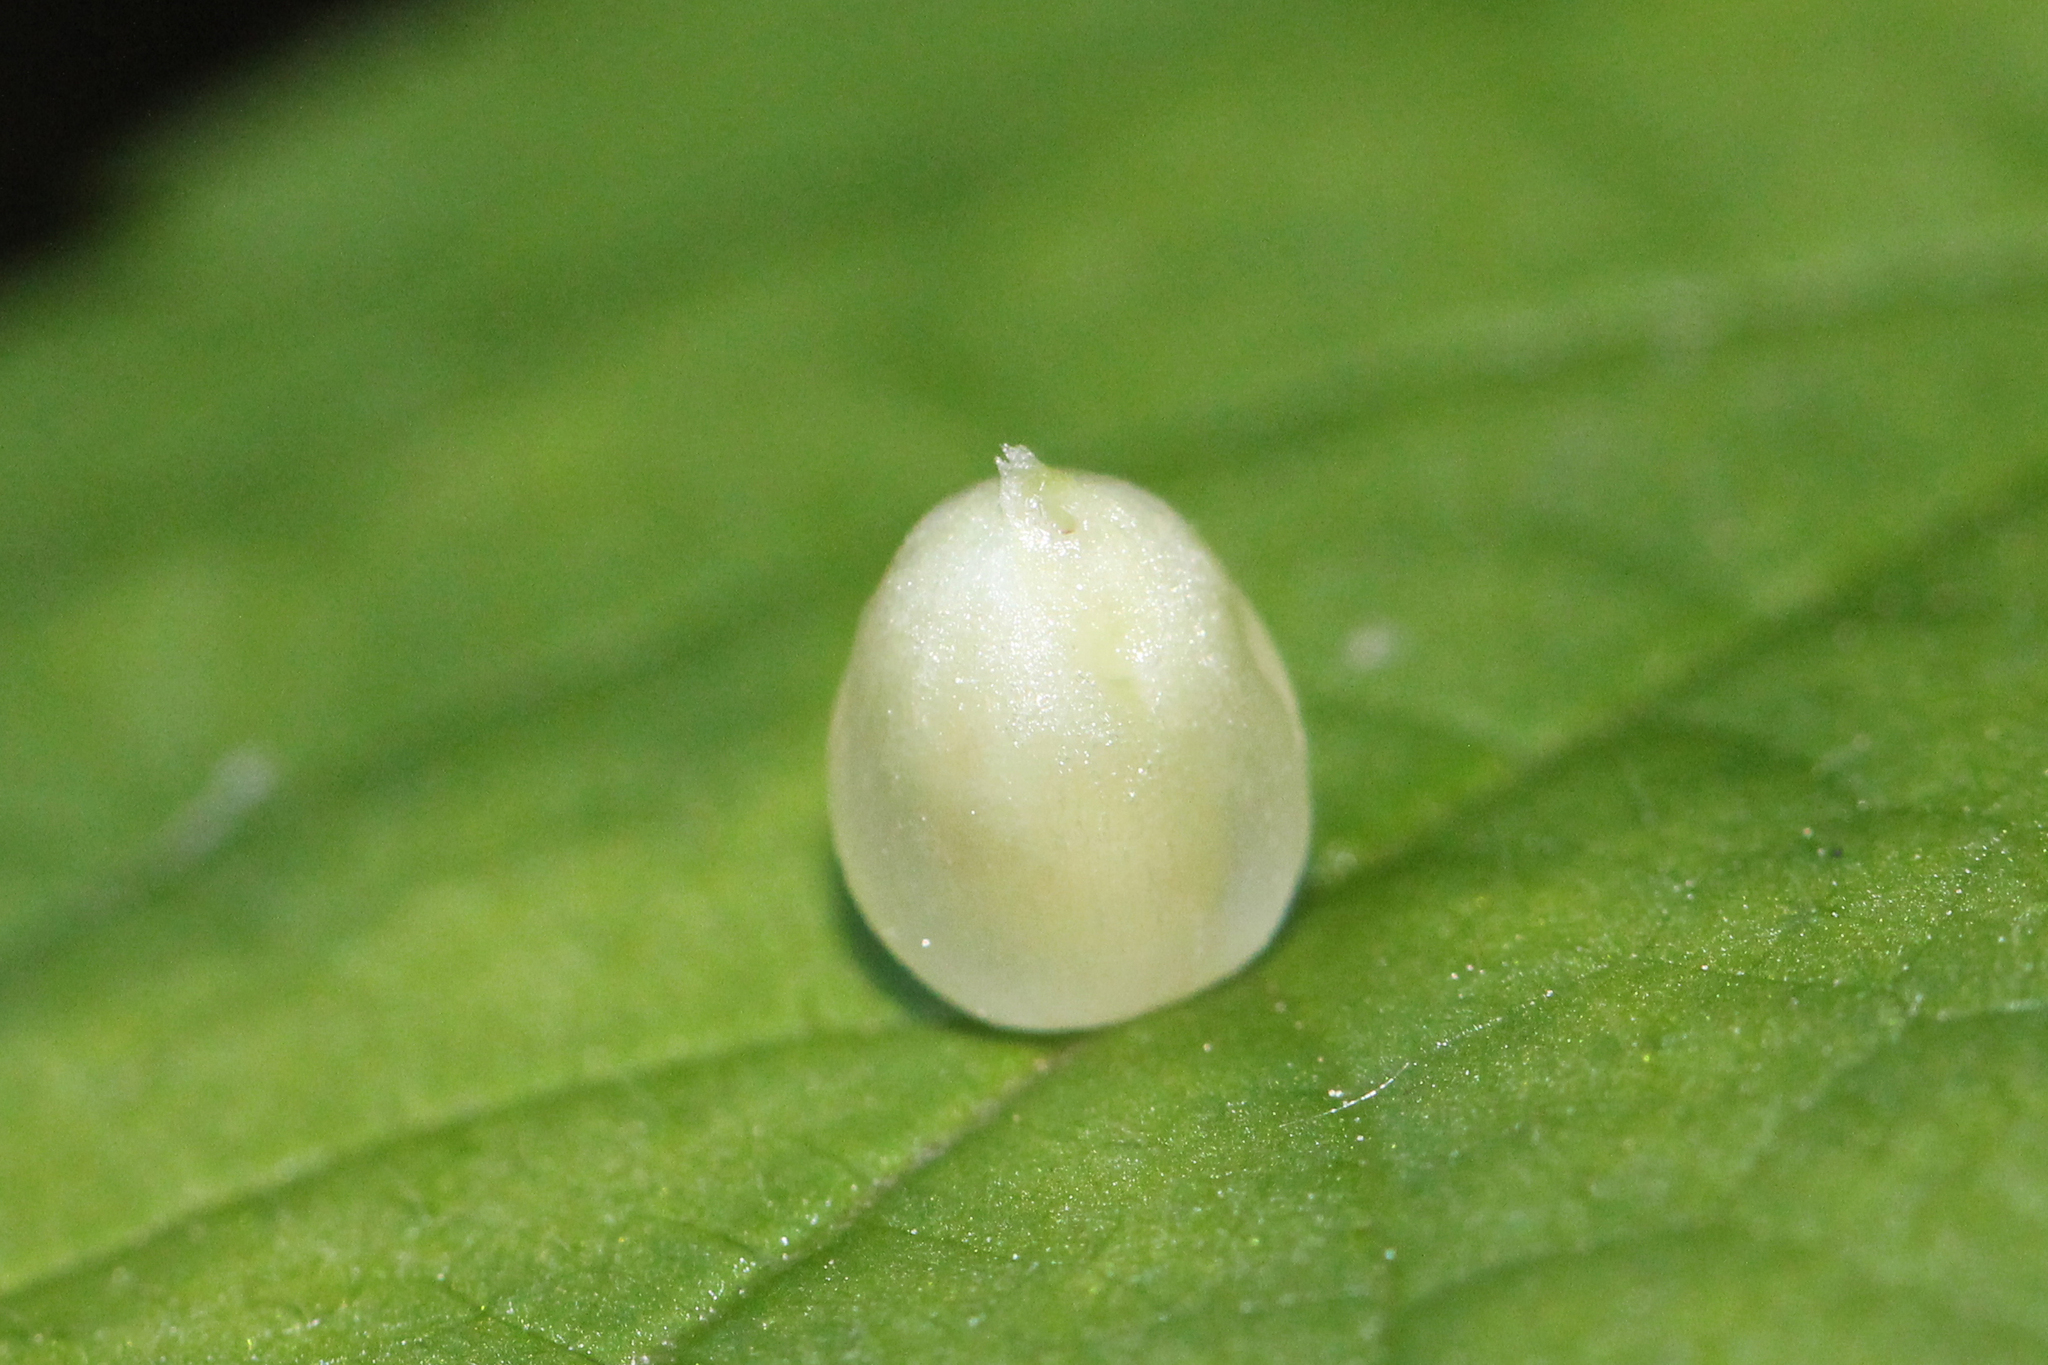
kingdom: Animalia
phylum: Arthropoda
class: Insecta
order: Diptera
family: Cecidomyiidae
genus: Dasineura
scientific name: Dasineura investita
